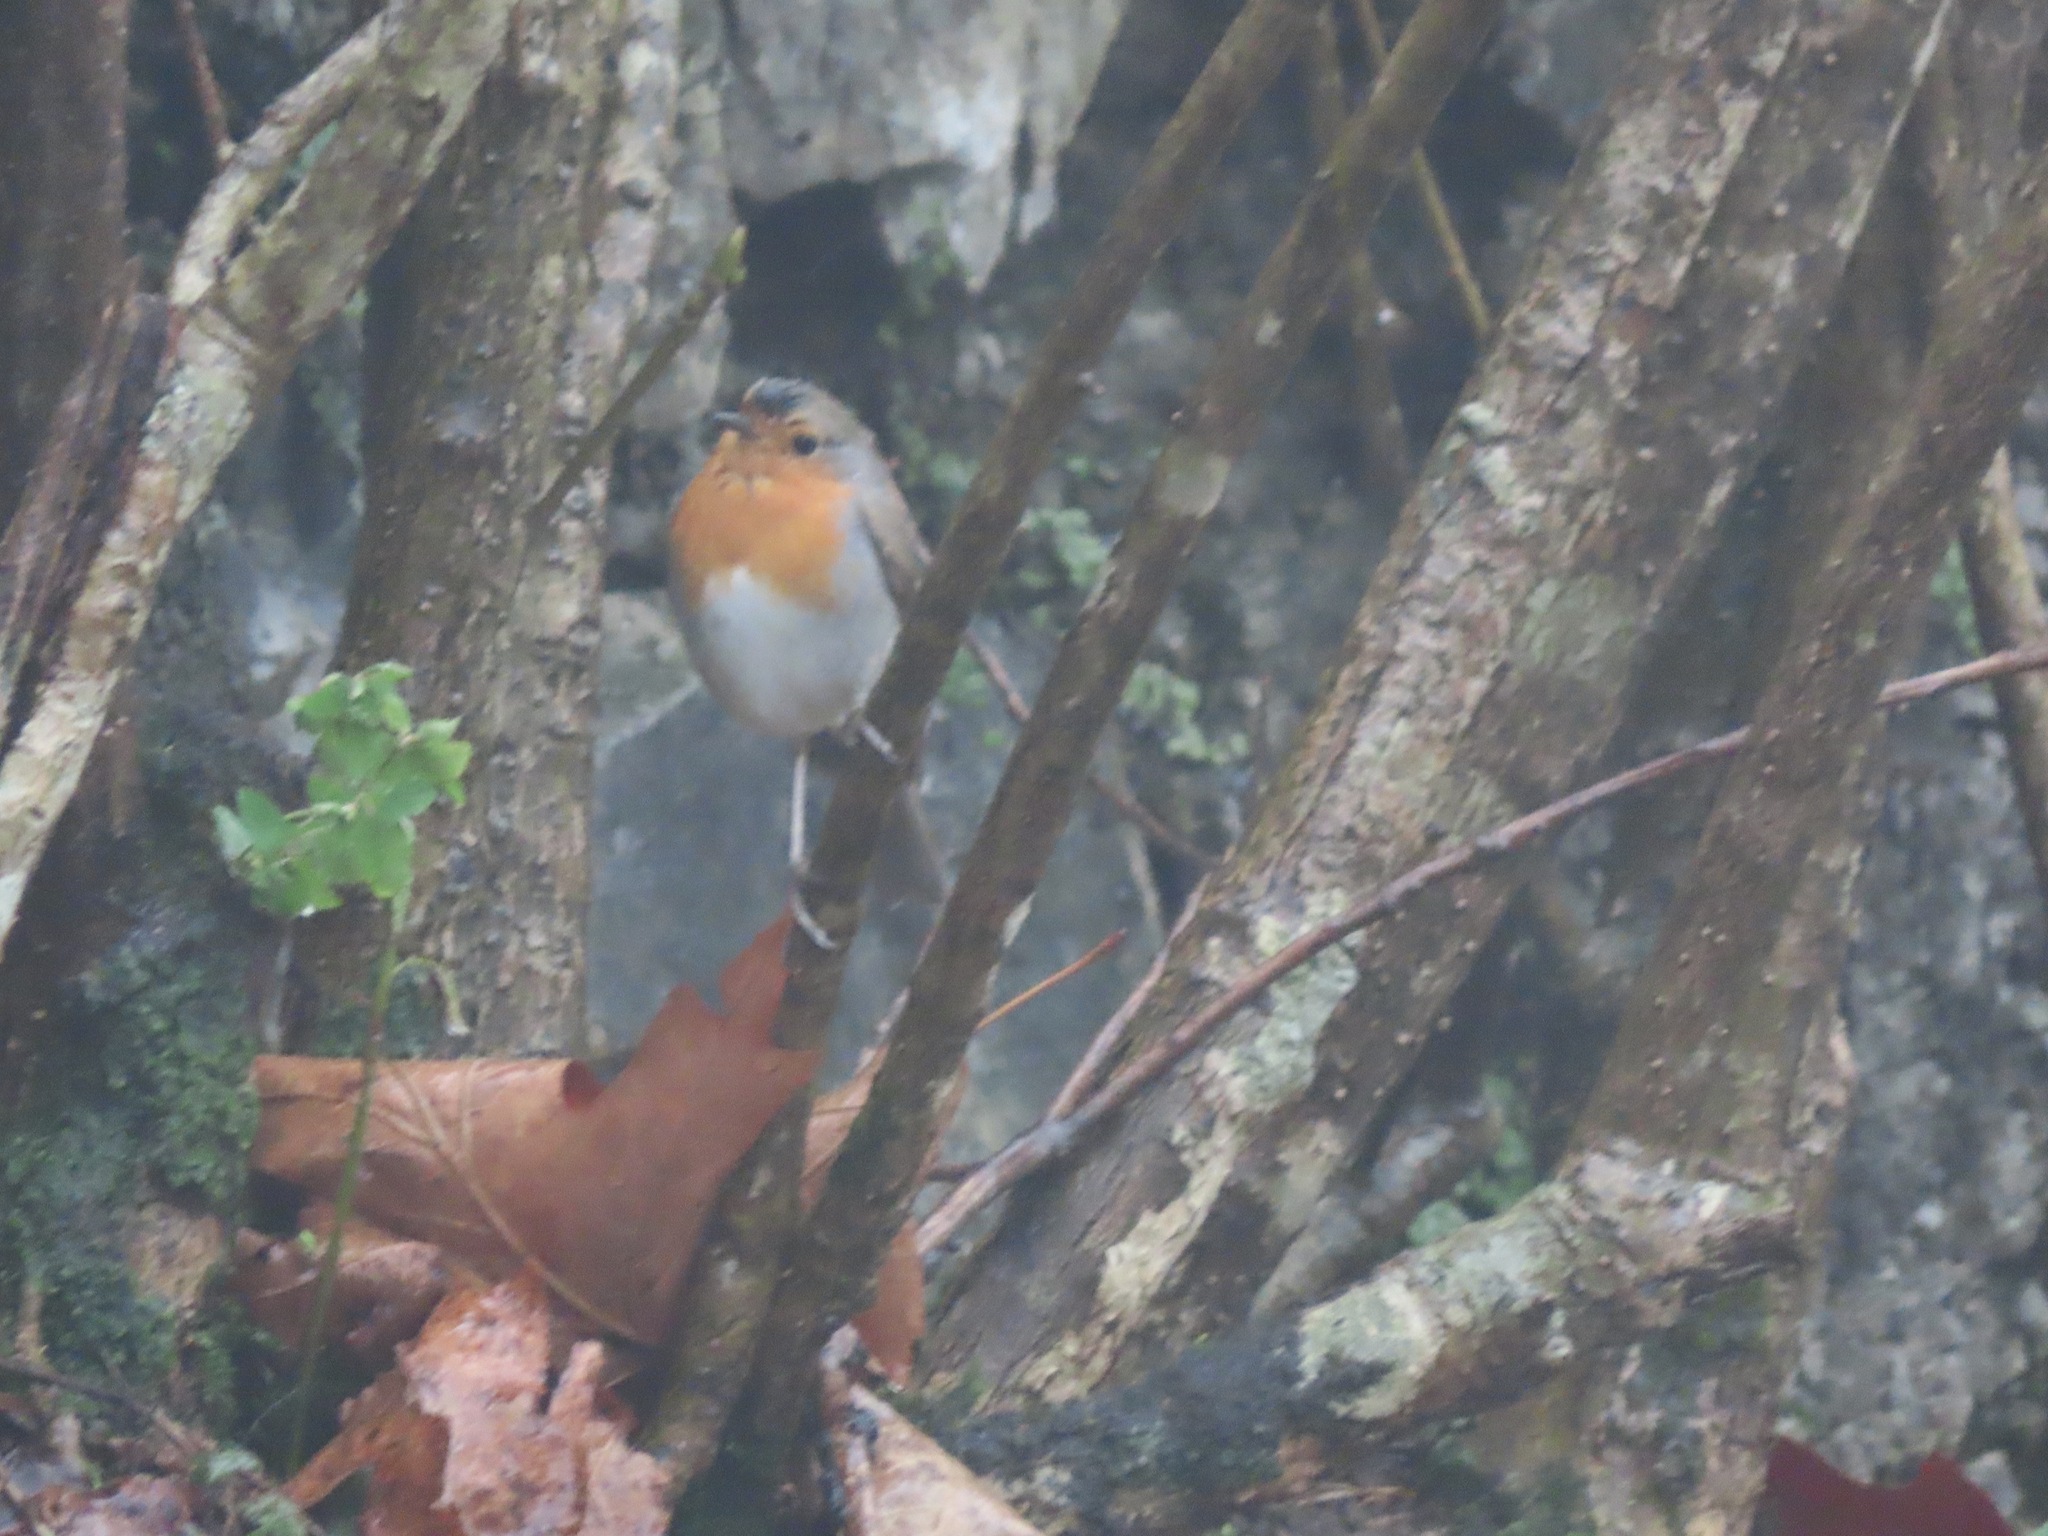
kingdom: Animalia
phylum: Chordata
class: Aves
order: Passeriformes
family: Muscicapidae
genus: Erithacus
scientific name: Erithacus rubecula
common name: European robin
